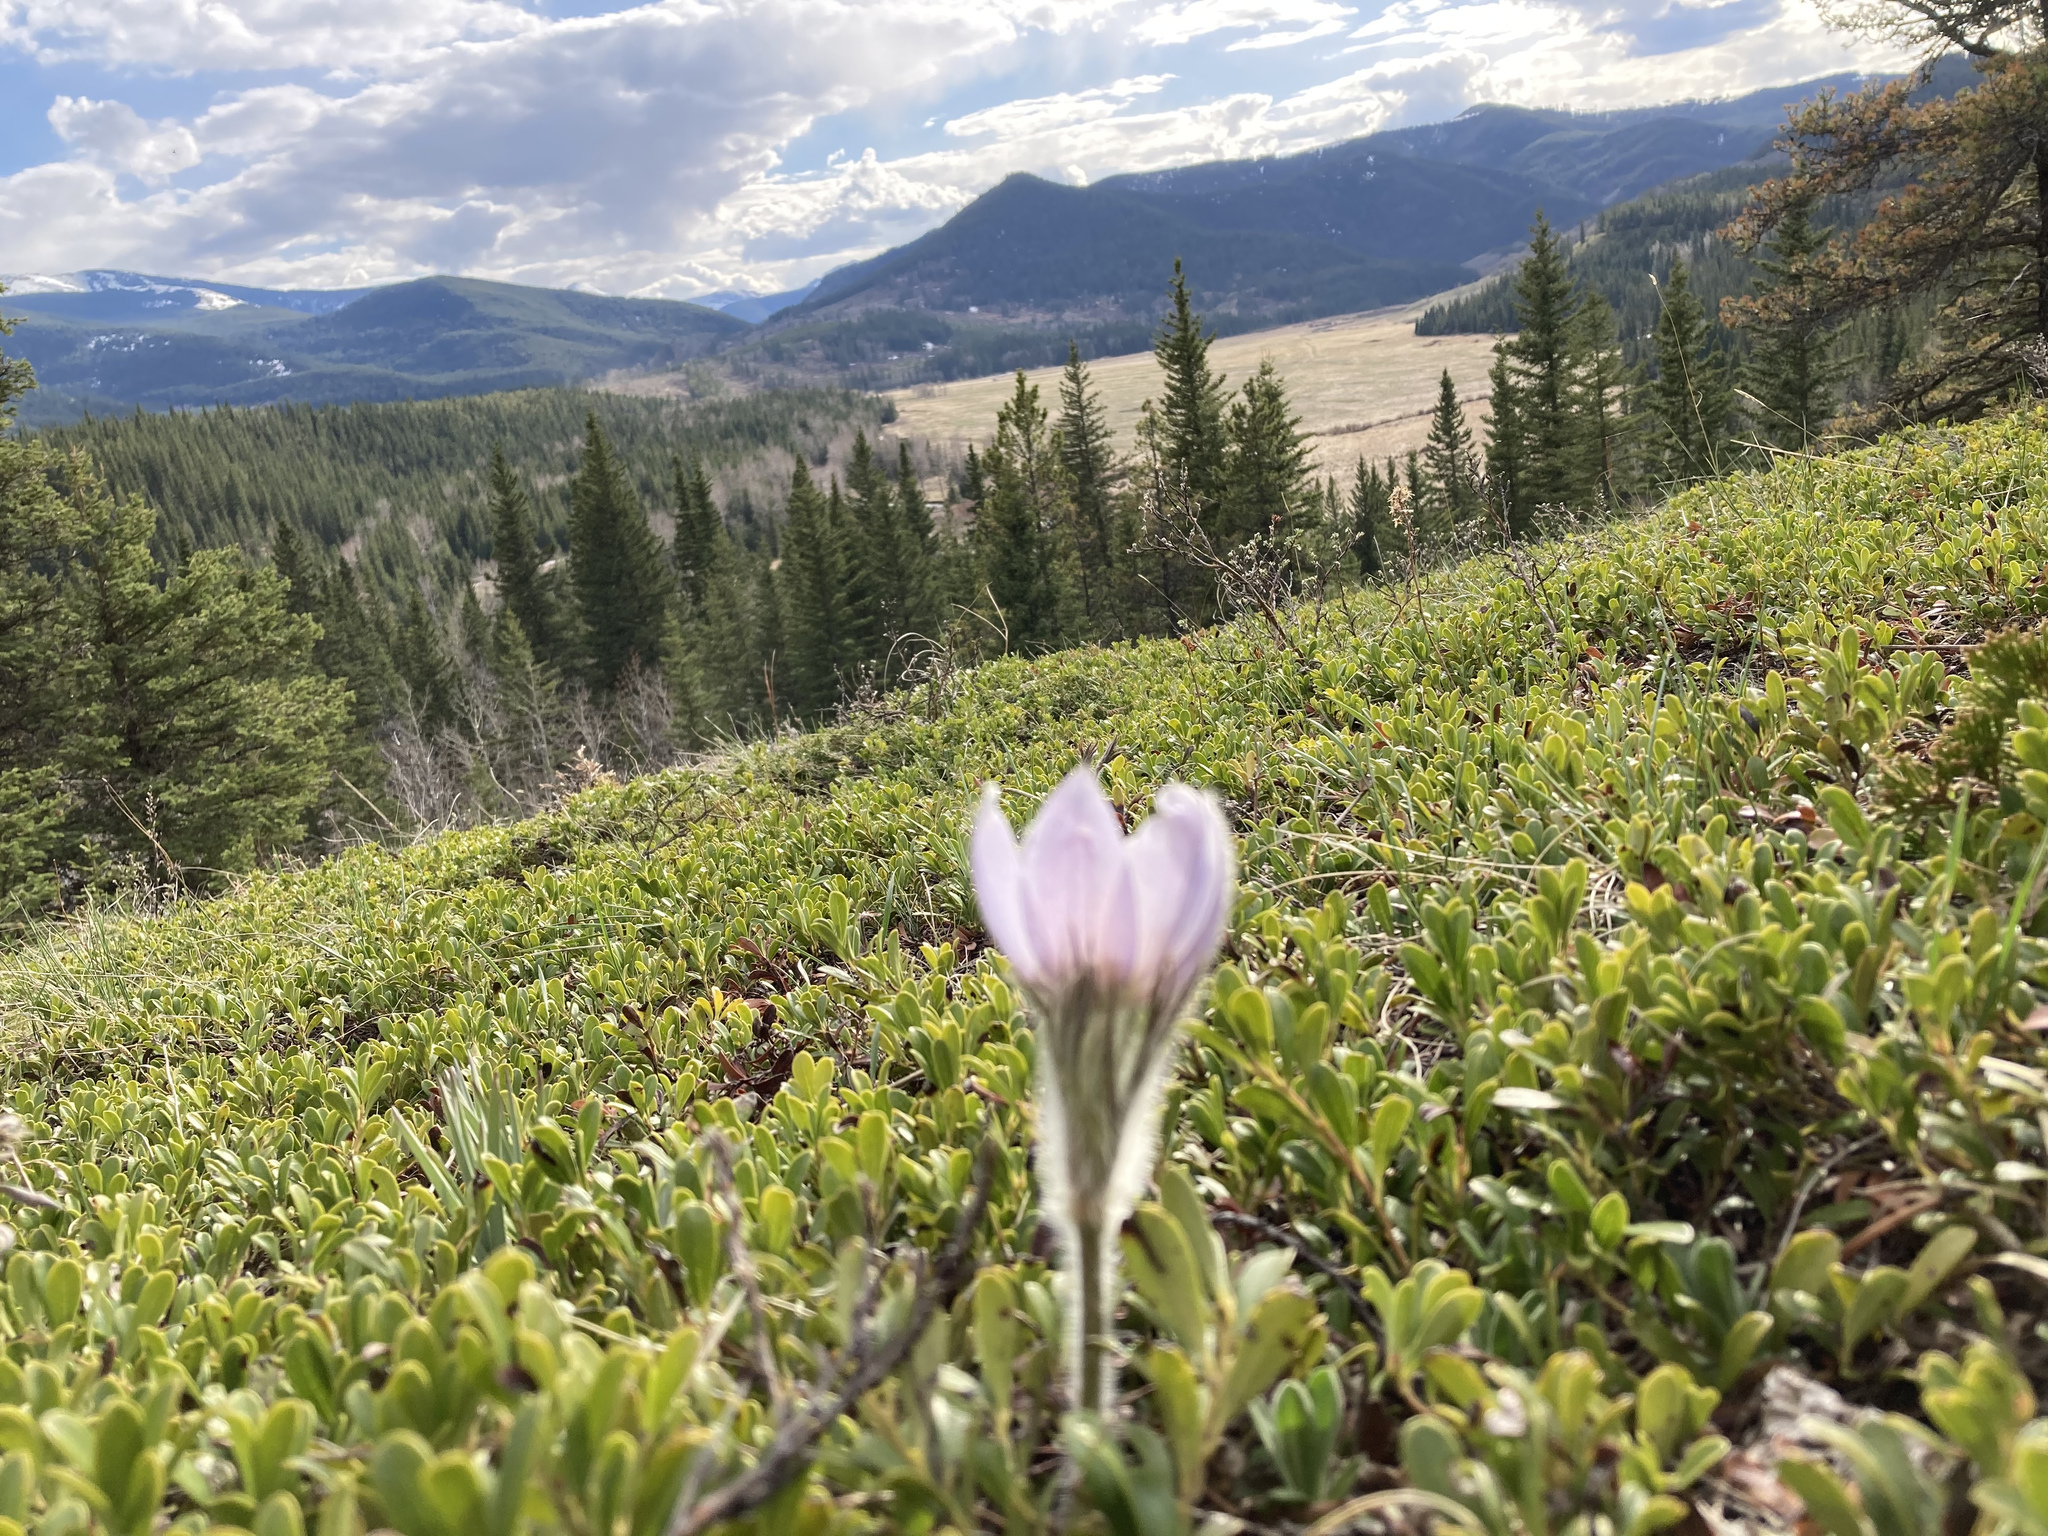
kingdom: Plantae
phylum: Tracheophyta
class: Magnoliopsida
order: Ranunculales
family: Ranunculaceae
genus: Pulsatilla
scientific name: Pulsatilla nuttalliana
